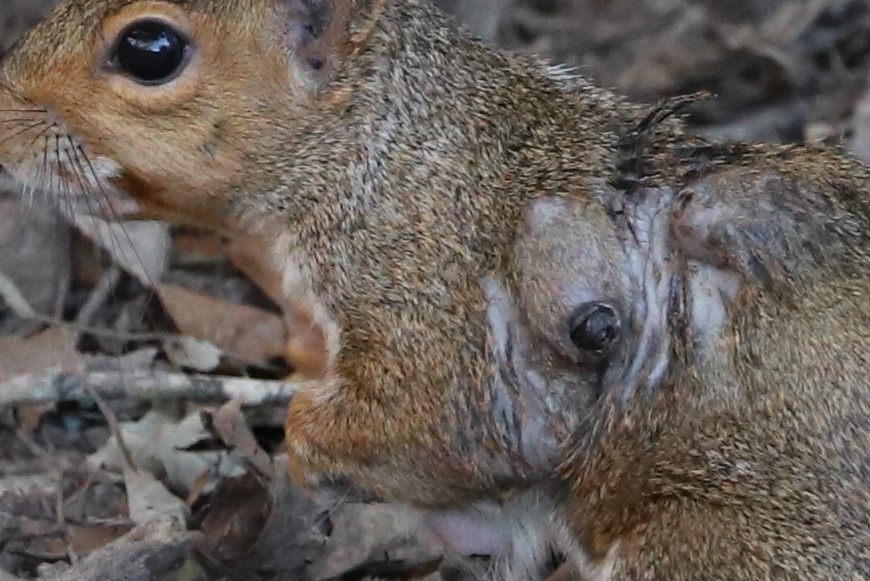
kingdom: Animalia
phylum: Arthropoda
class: Insecta
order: Diptera
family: Oestridae
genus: Cuterebra
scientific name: Cuterebra emasculator
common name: Squirrel bot fly
